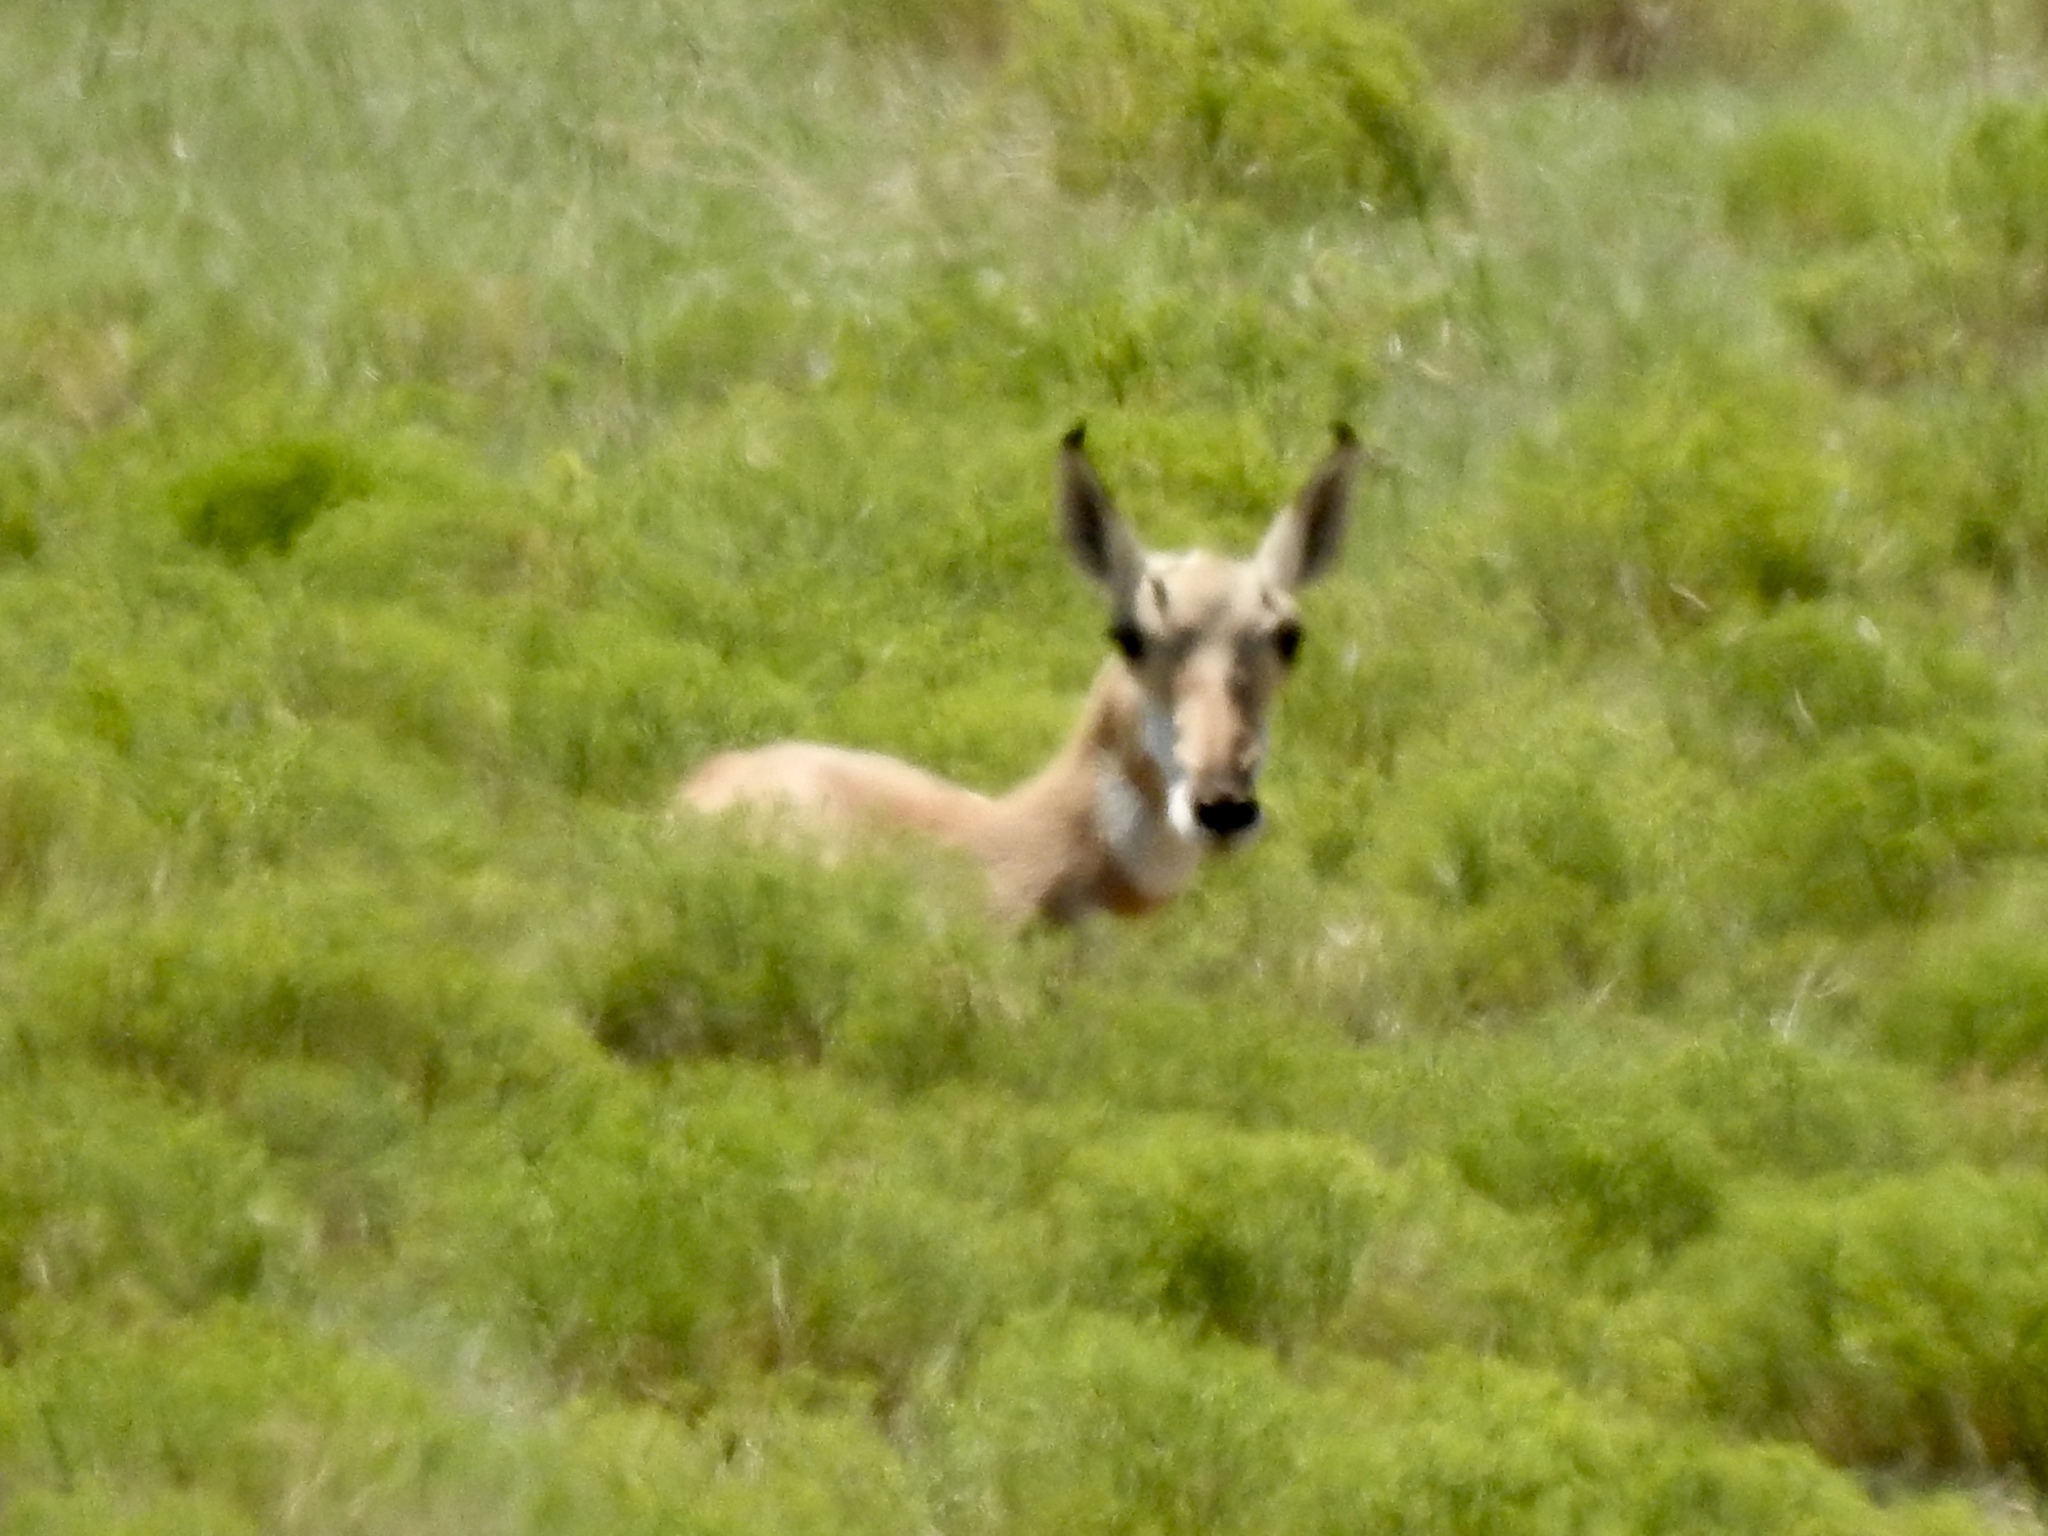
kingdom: Animalia
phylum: Chordata
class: Mammalia
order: Artiodactyla
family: Antilocapridae
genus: Antilocapra
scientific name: Antilocapra americana
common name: Pronghorn
